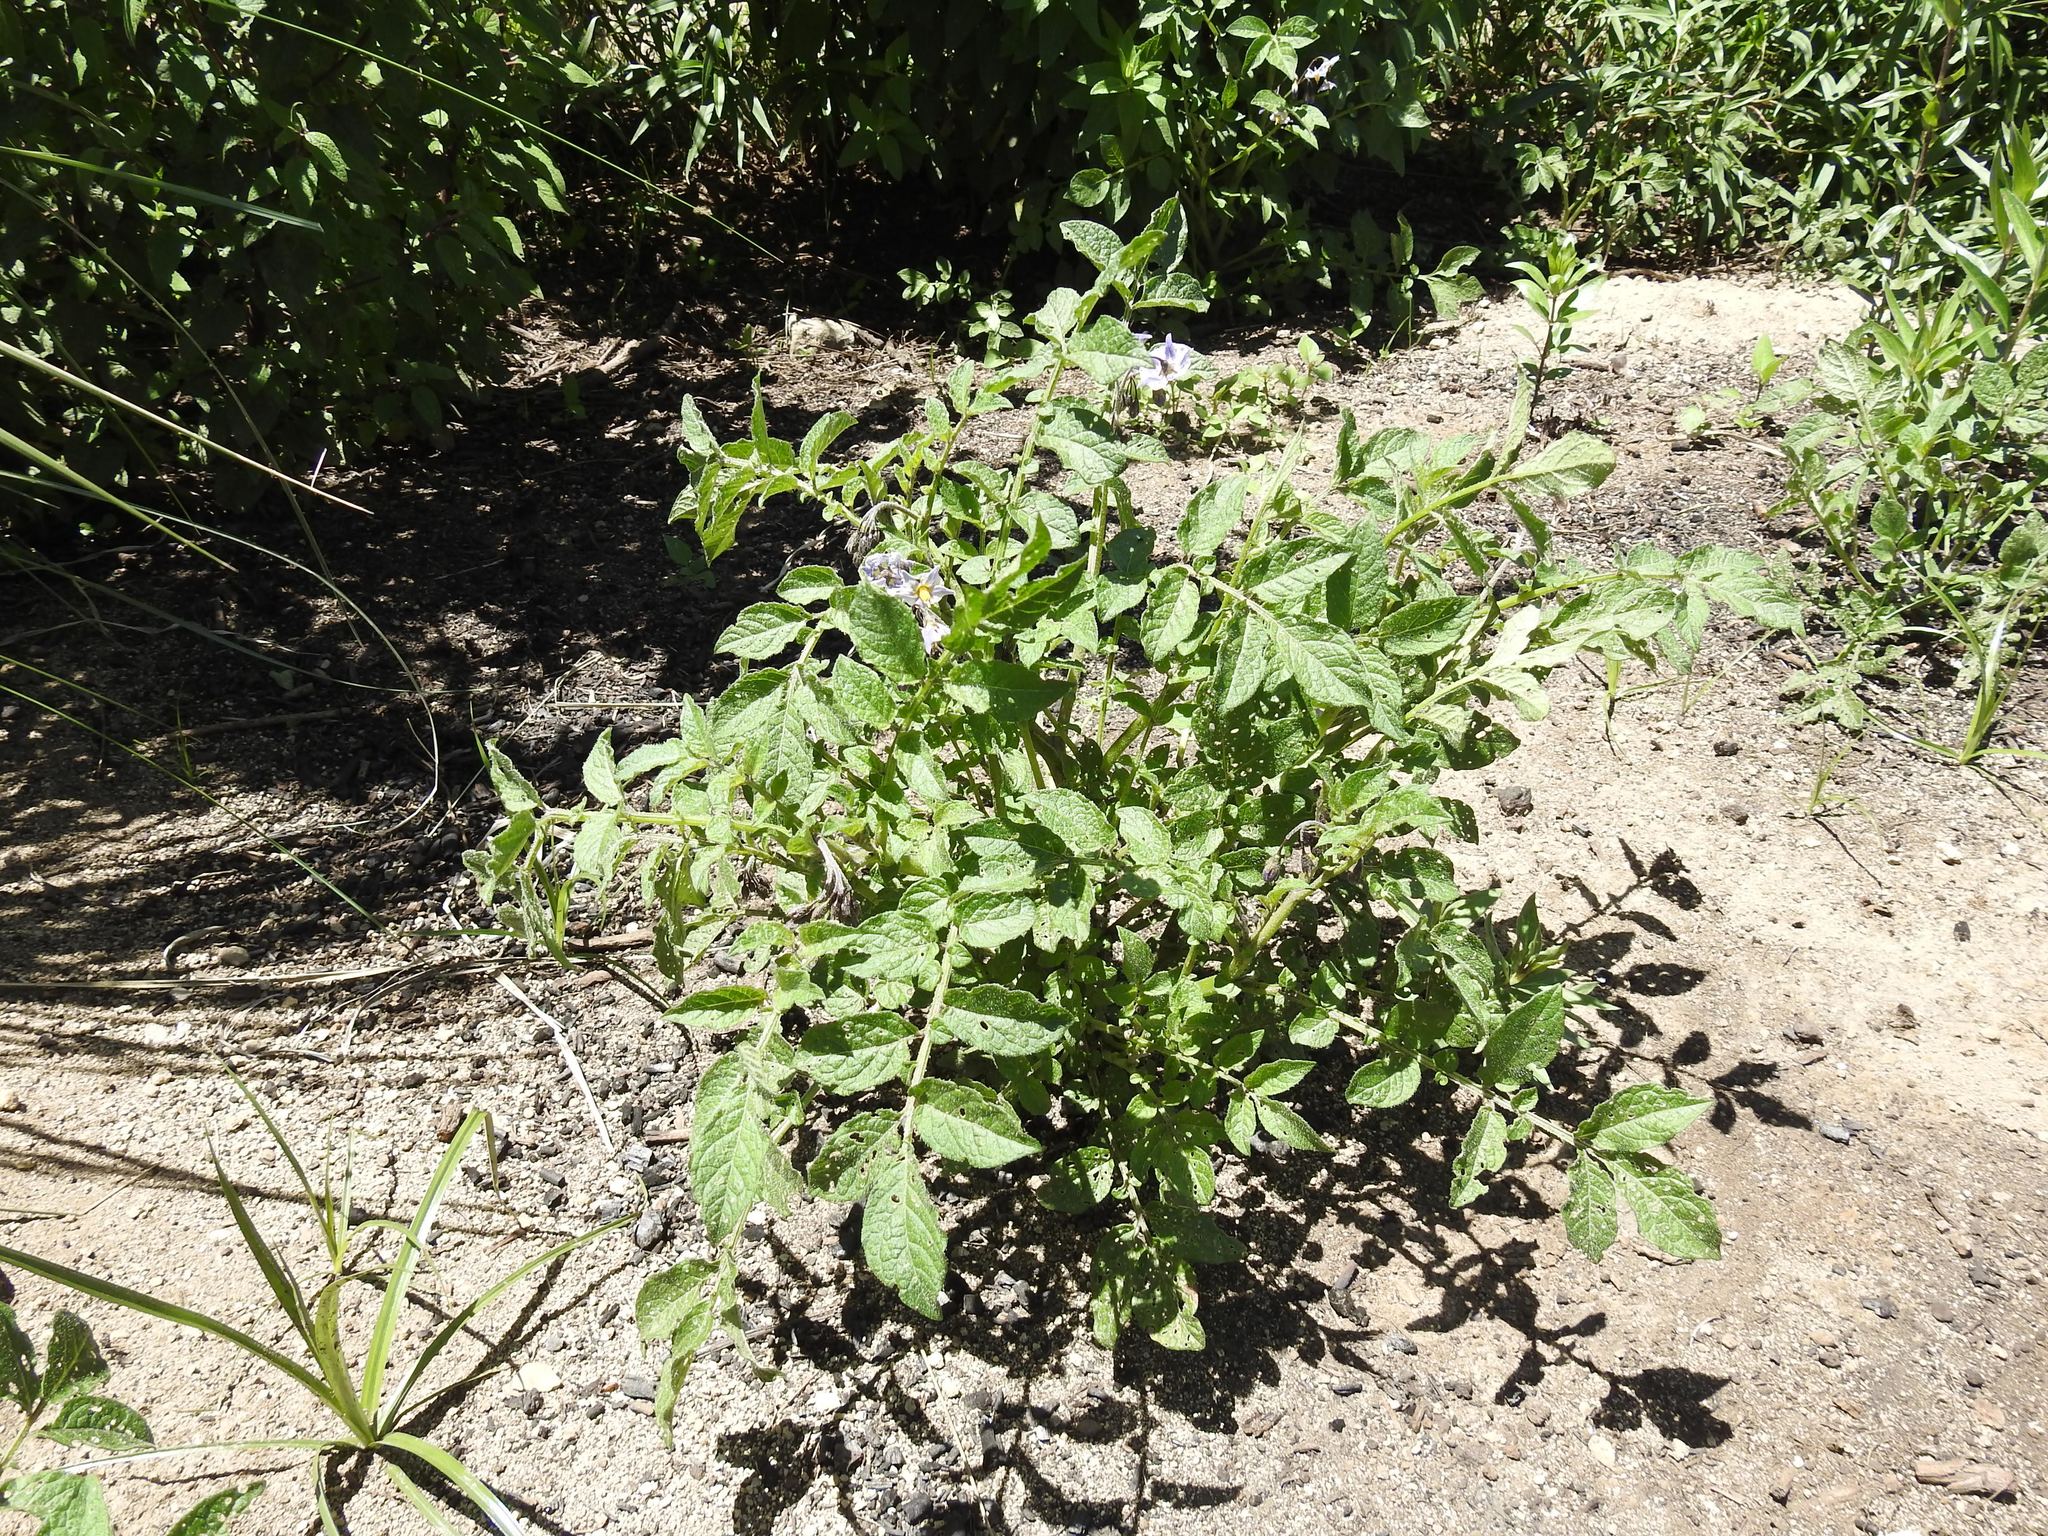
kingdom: Plantae
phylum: Tracheophyta
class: Magnoliopsida
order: Solanales
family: Solanaceae
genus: Solanum
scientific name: Solanum tuberosum
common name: Potato
